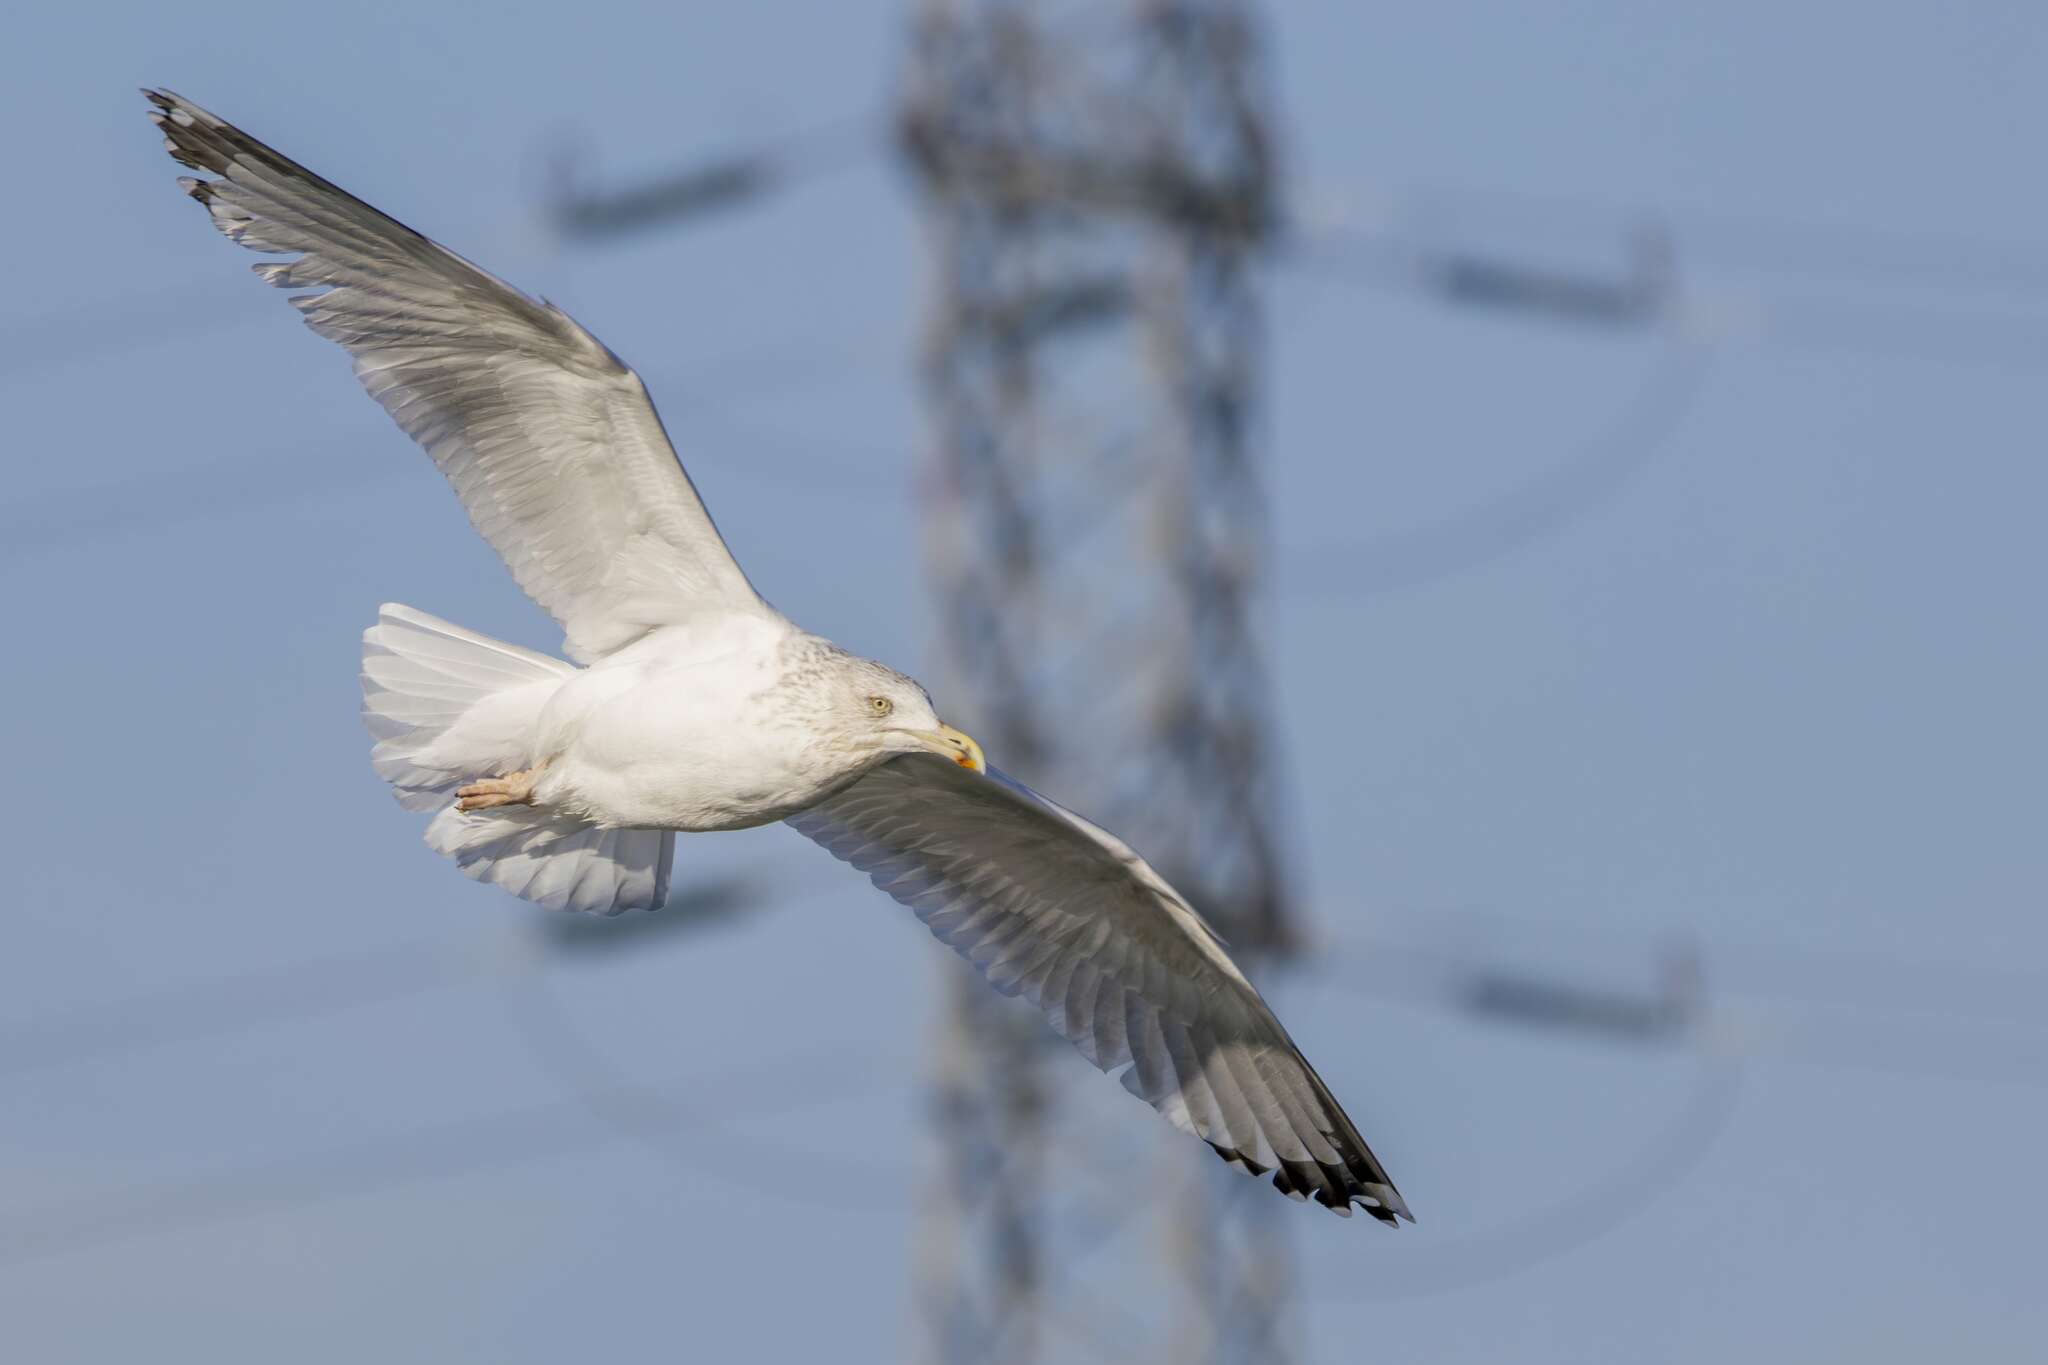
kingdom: Animalia
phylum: Chordata
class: Aves
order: Charadriiformes
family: Laridae
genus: Larus
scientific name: Larus argentatus
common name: Herring gull
